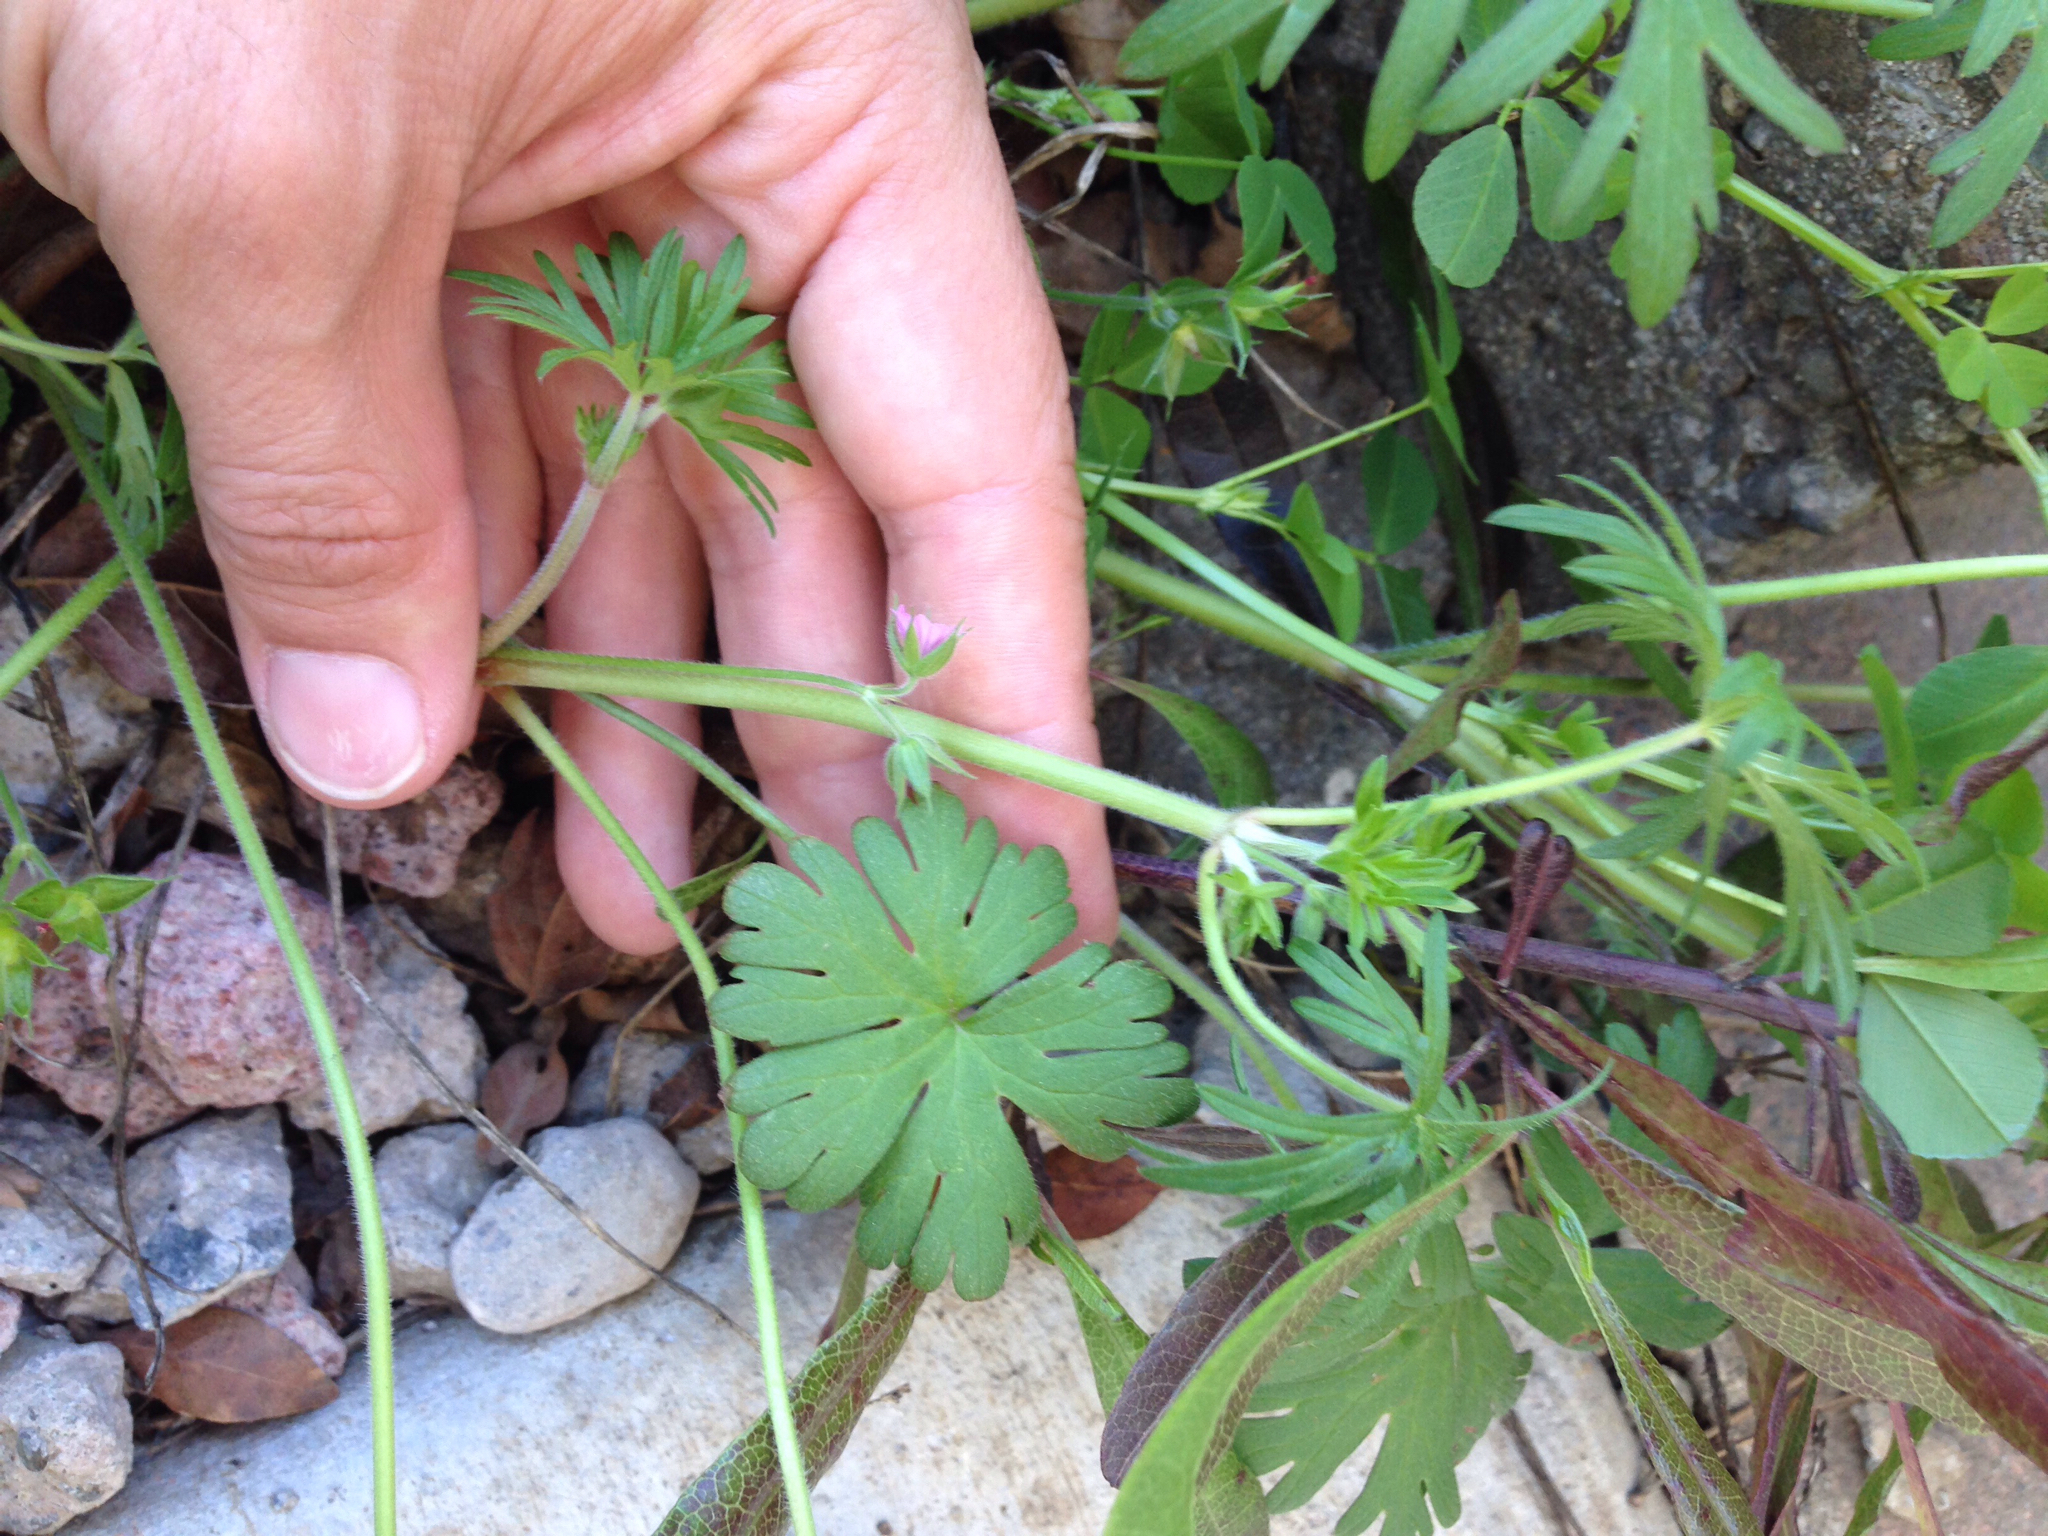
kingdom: Plantae
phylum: Tracheophyta
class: Magnoliopsida
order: Geraniales
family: Geraniaceae
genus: Geranium
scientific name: Geranium molle
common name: Dove's-foot crane's-bill
